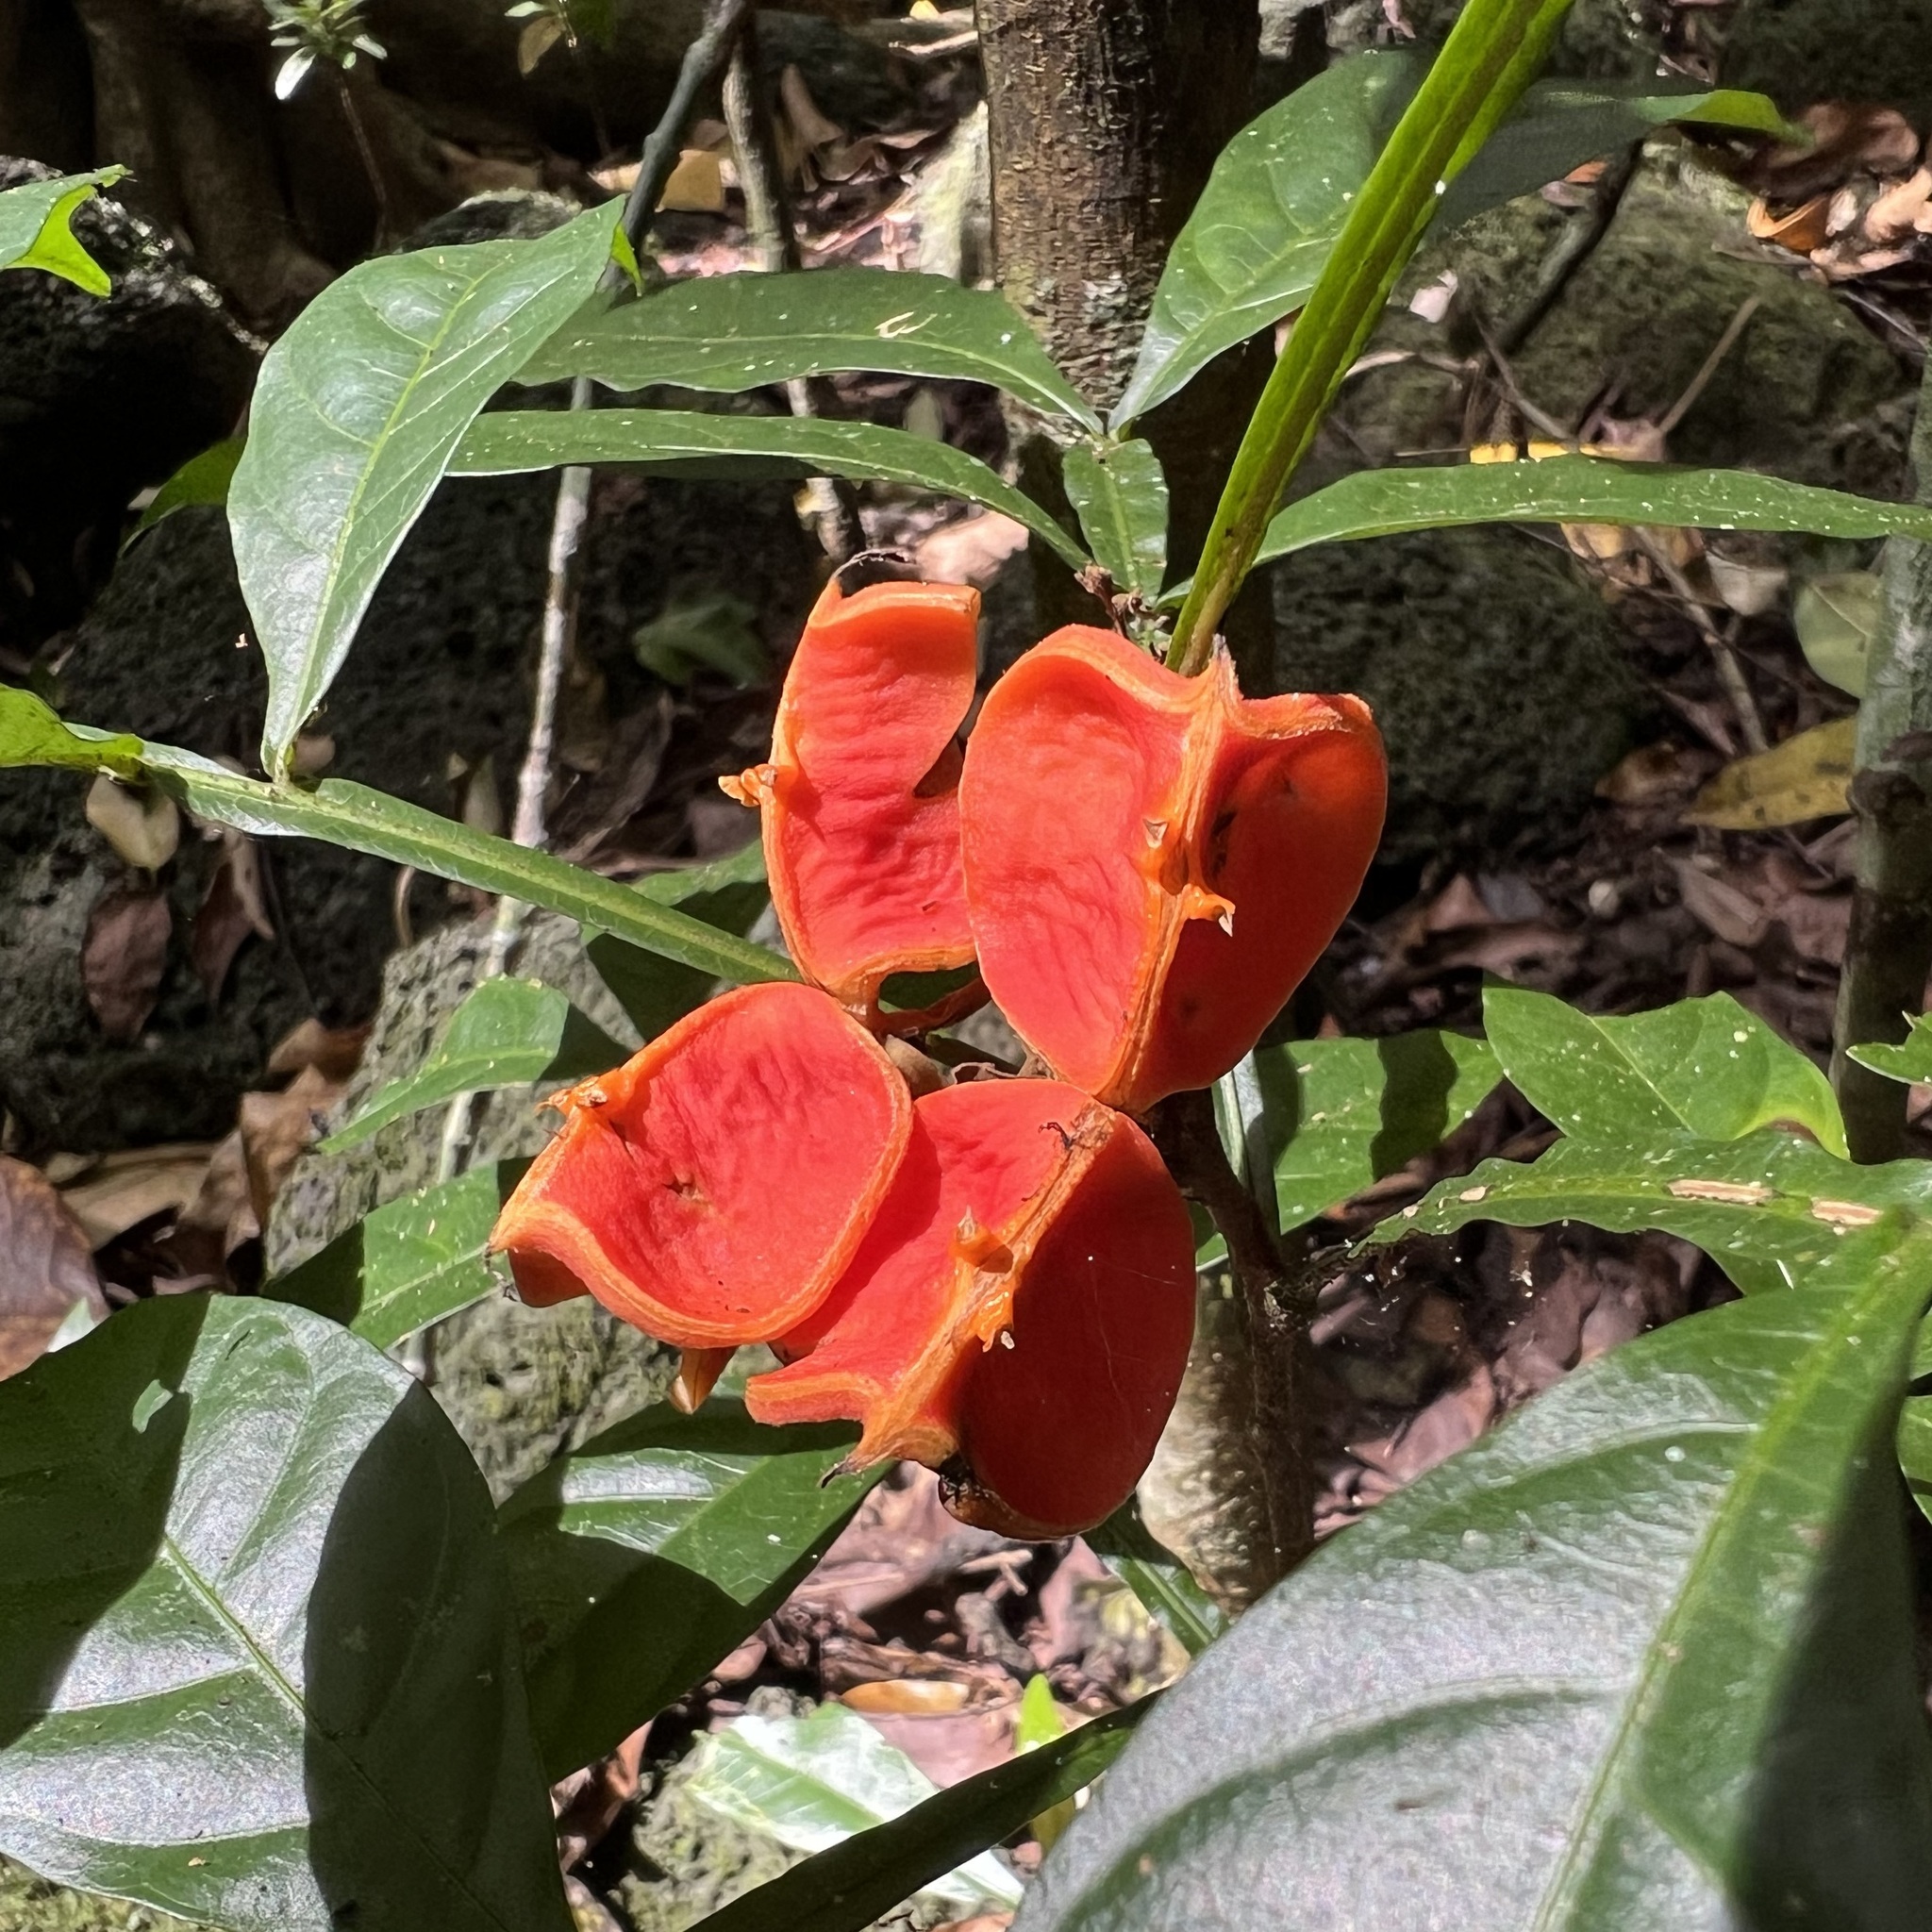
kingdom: Plantae
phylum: Tracheophyta
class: Magnoliopsida
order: Sapindales
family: Sapindaceae
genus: Harpullia
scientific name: Harpullia frutescens
